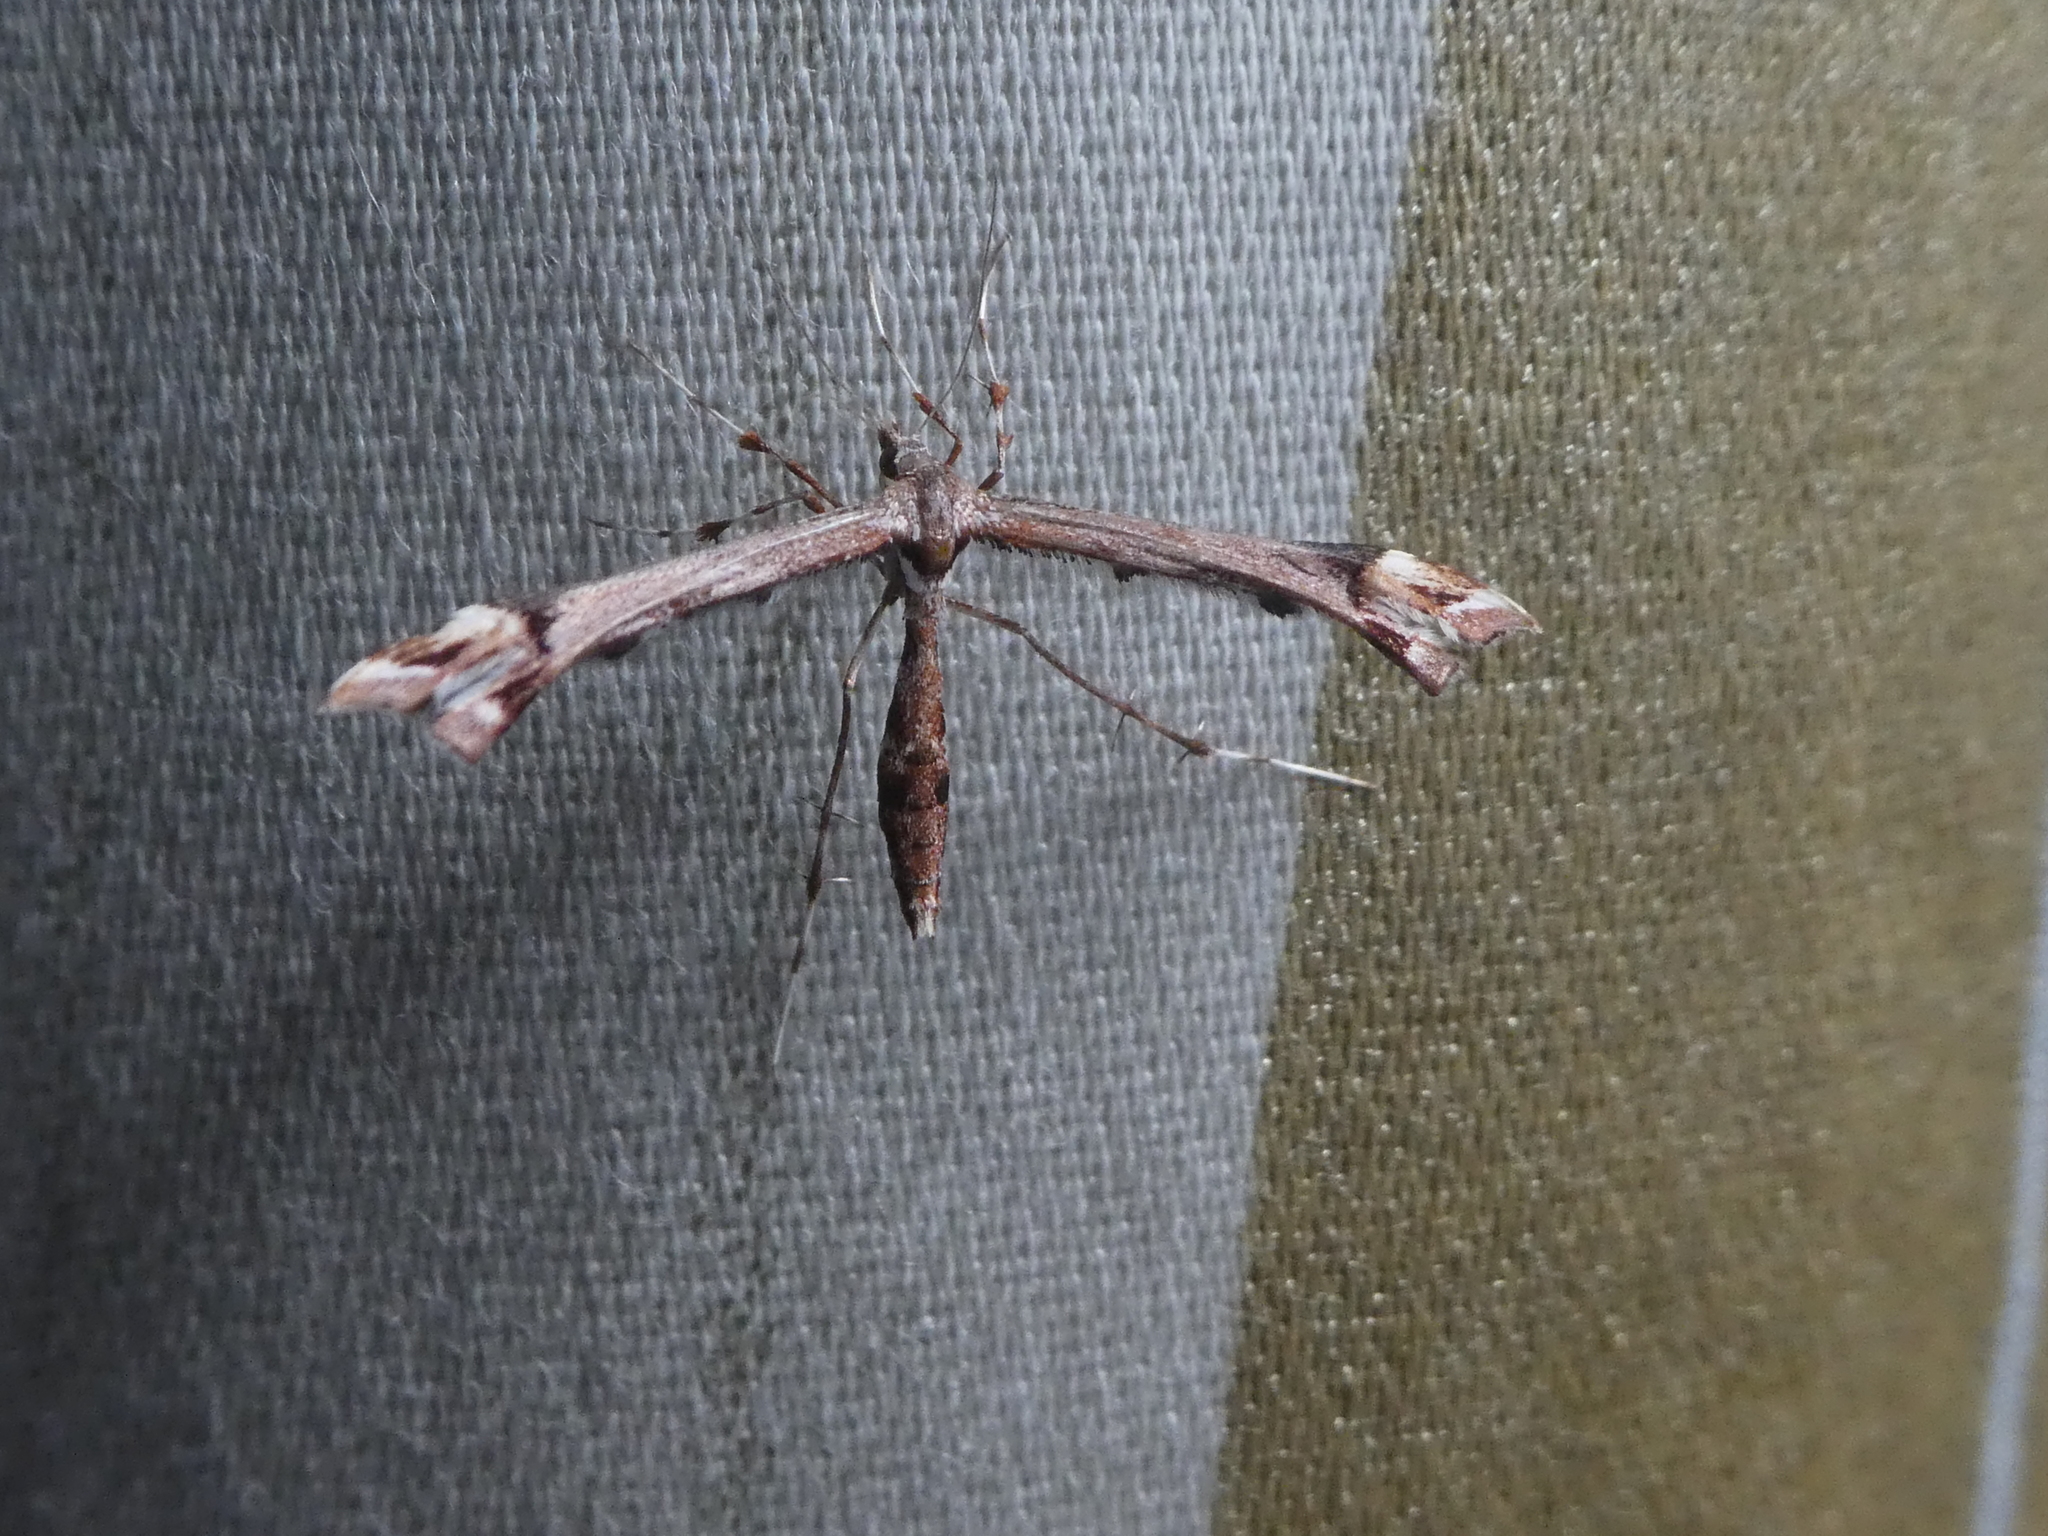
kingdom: Animalia
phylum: Arthropoda
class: Insecta
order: Lepidoptera
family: Pterophoridae
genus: Amblyptilia
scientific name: Amblyptilia falcatalis
